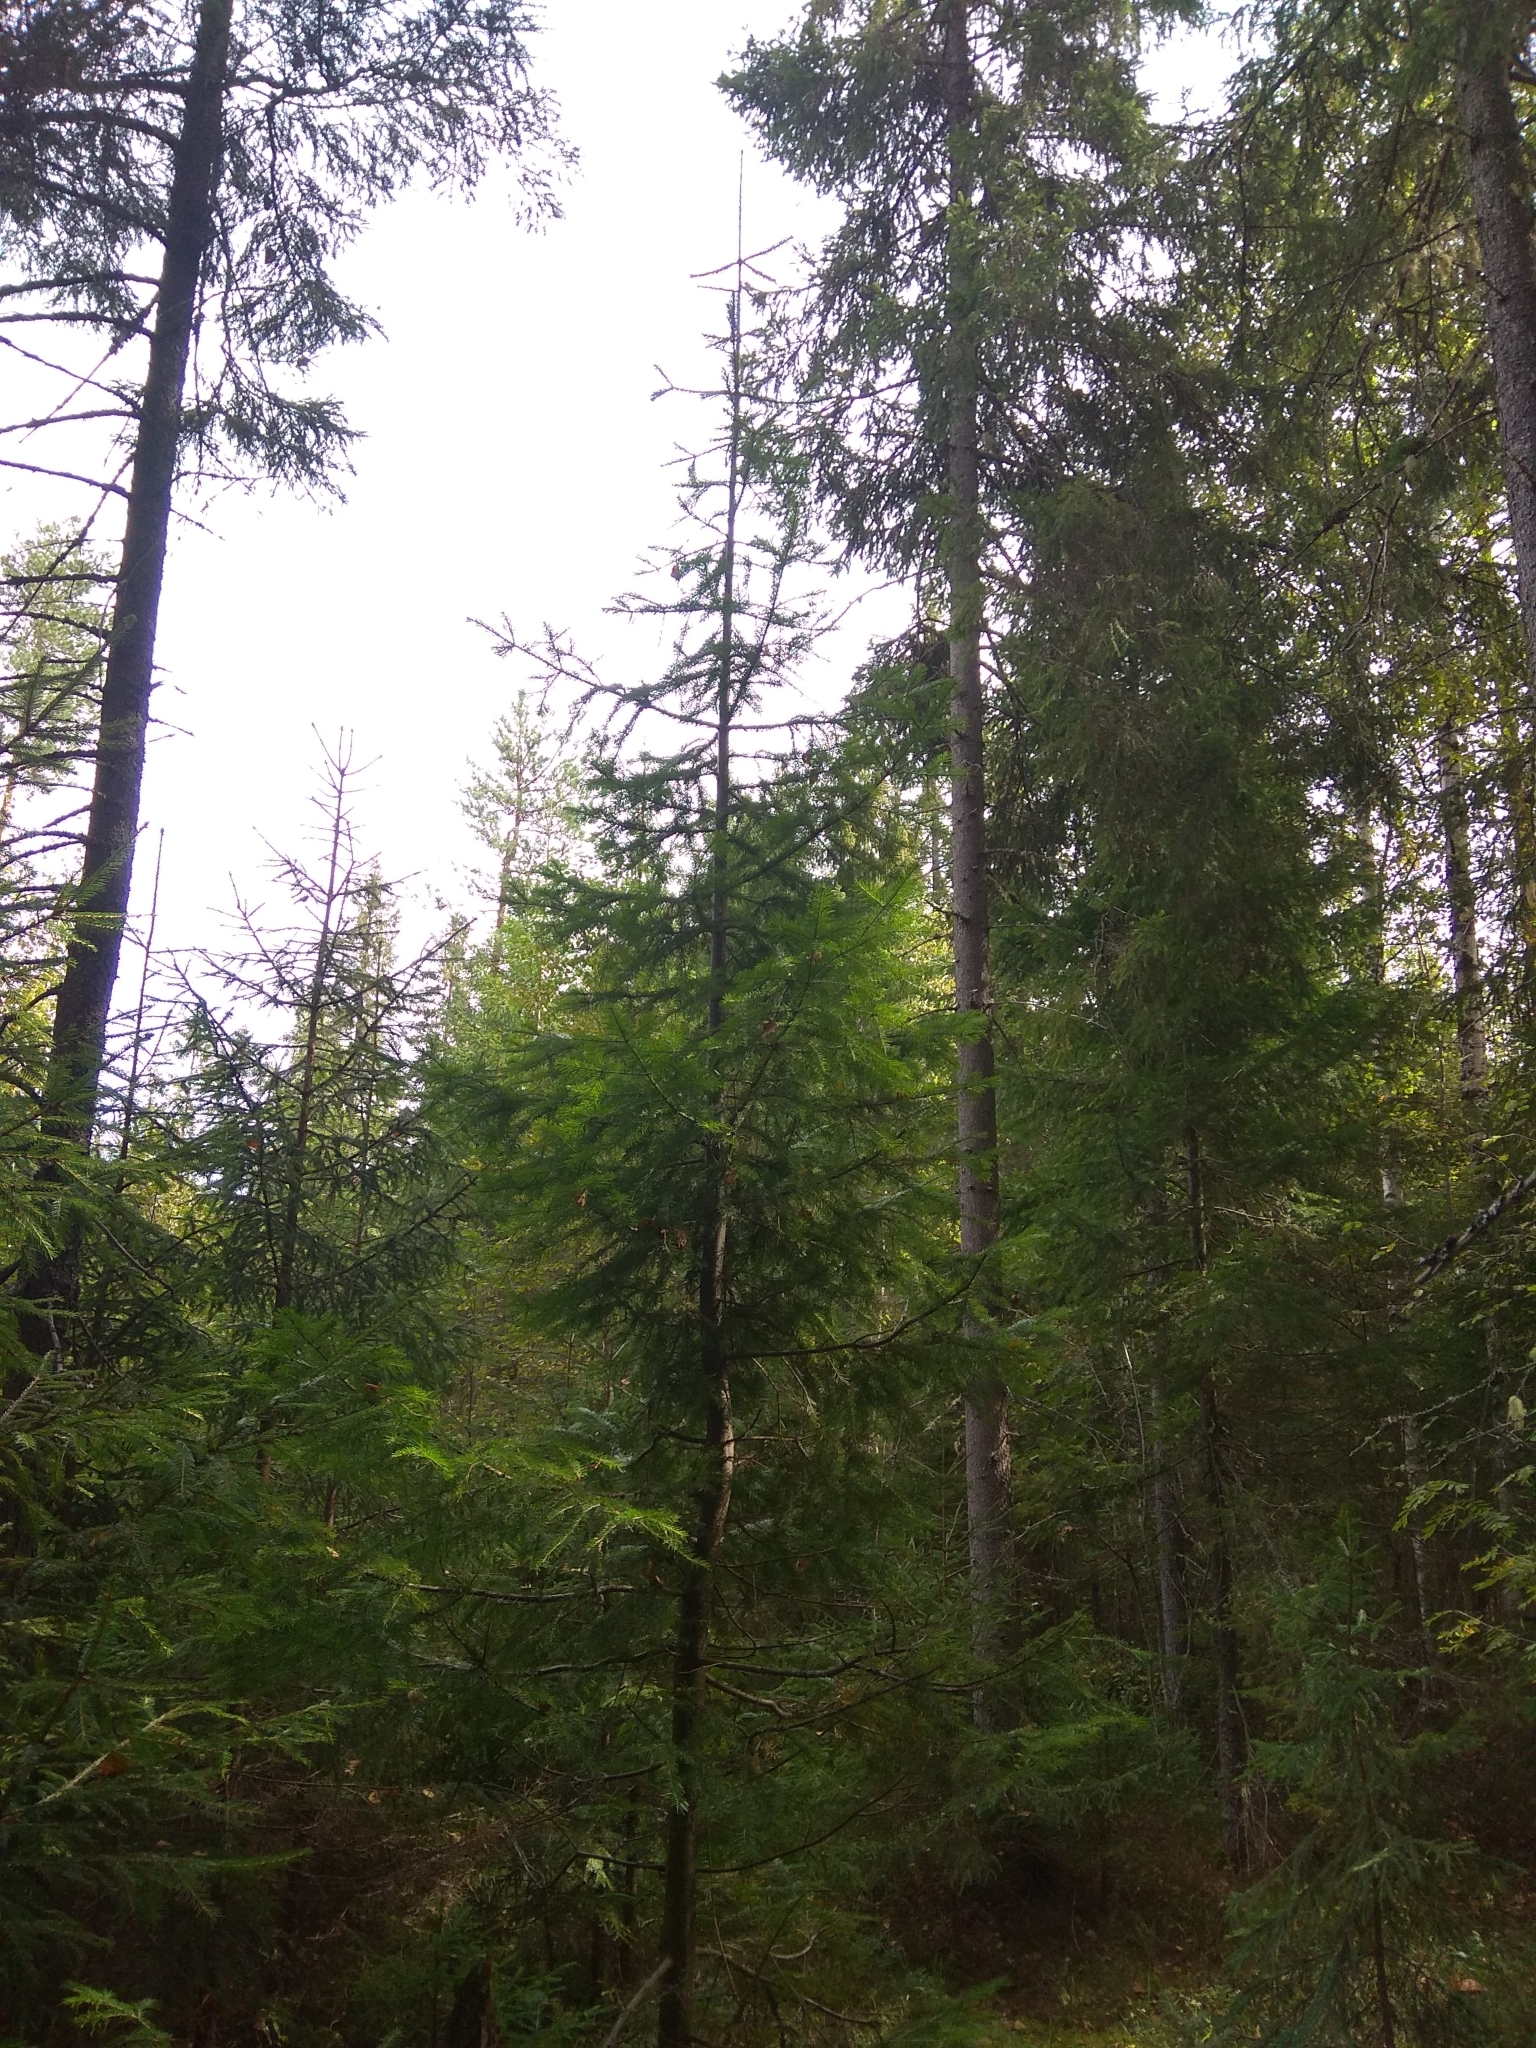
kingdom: Plantae
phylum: Tracheophyta
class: Pinopsida
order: Pinales
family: Pinaceae
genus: Abies
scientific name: Abies sibirica
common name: Siberian fir
